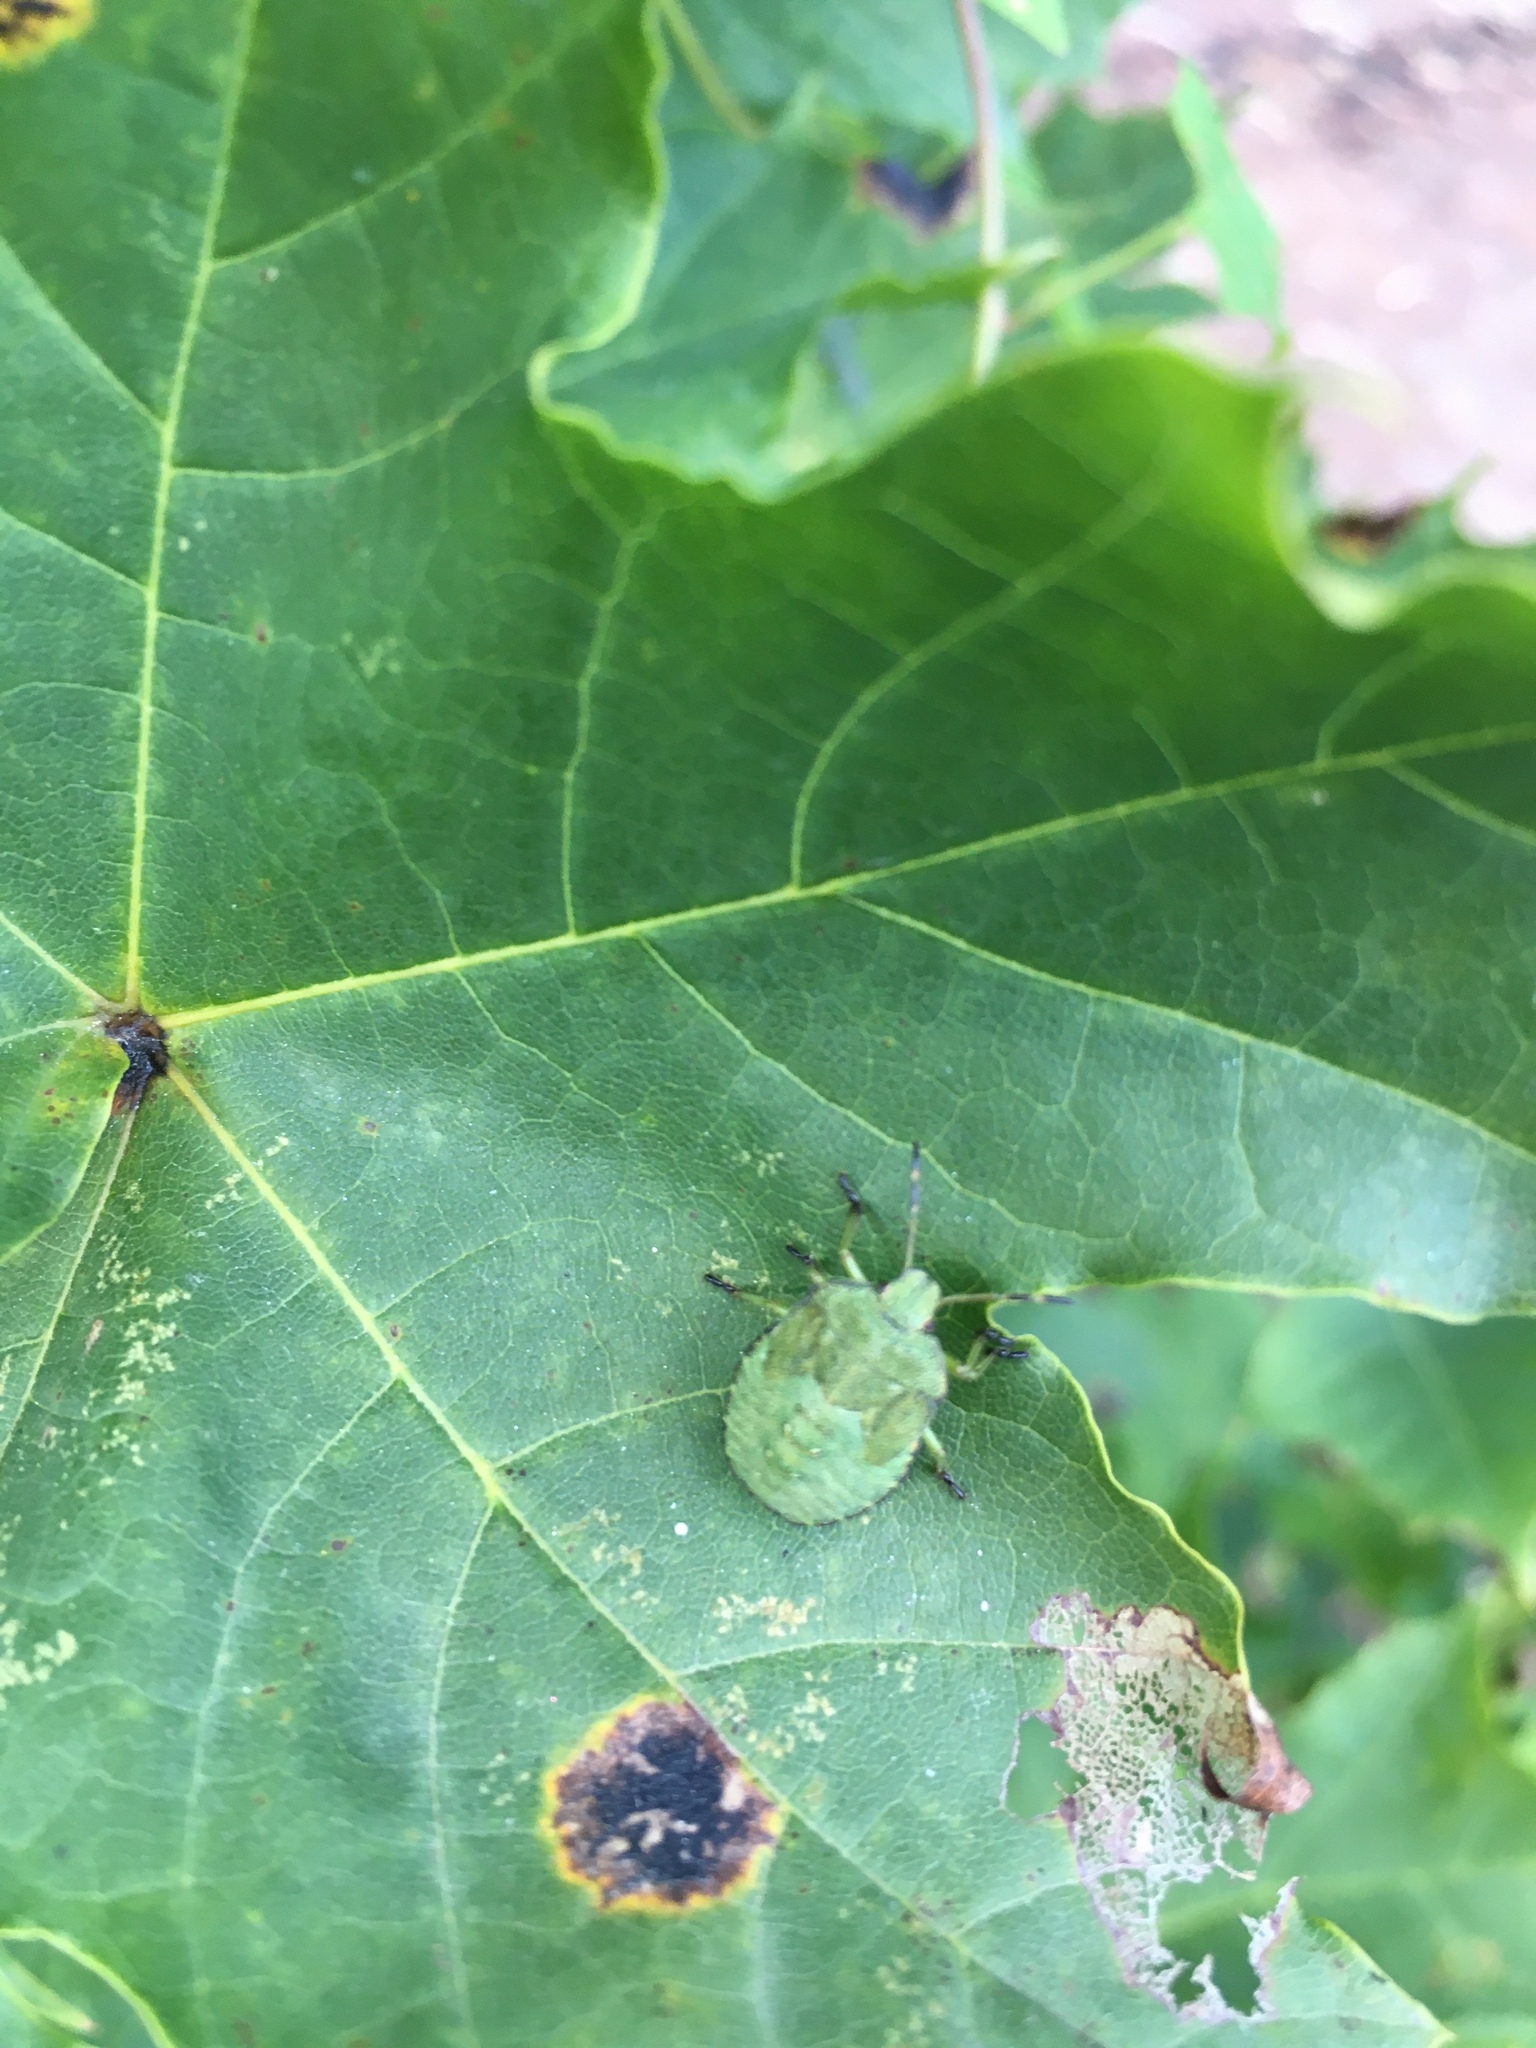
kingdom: Animalia
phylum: Arthropoda
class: Insecta
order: Hemiptera
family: Pentatomidae
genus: Palomena
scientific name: Palomena prasina
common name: Green shieldbug
